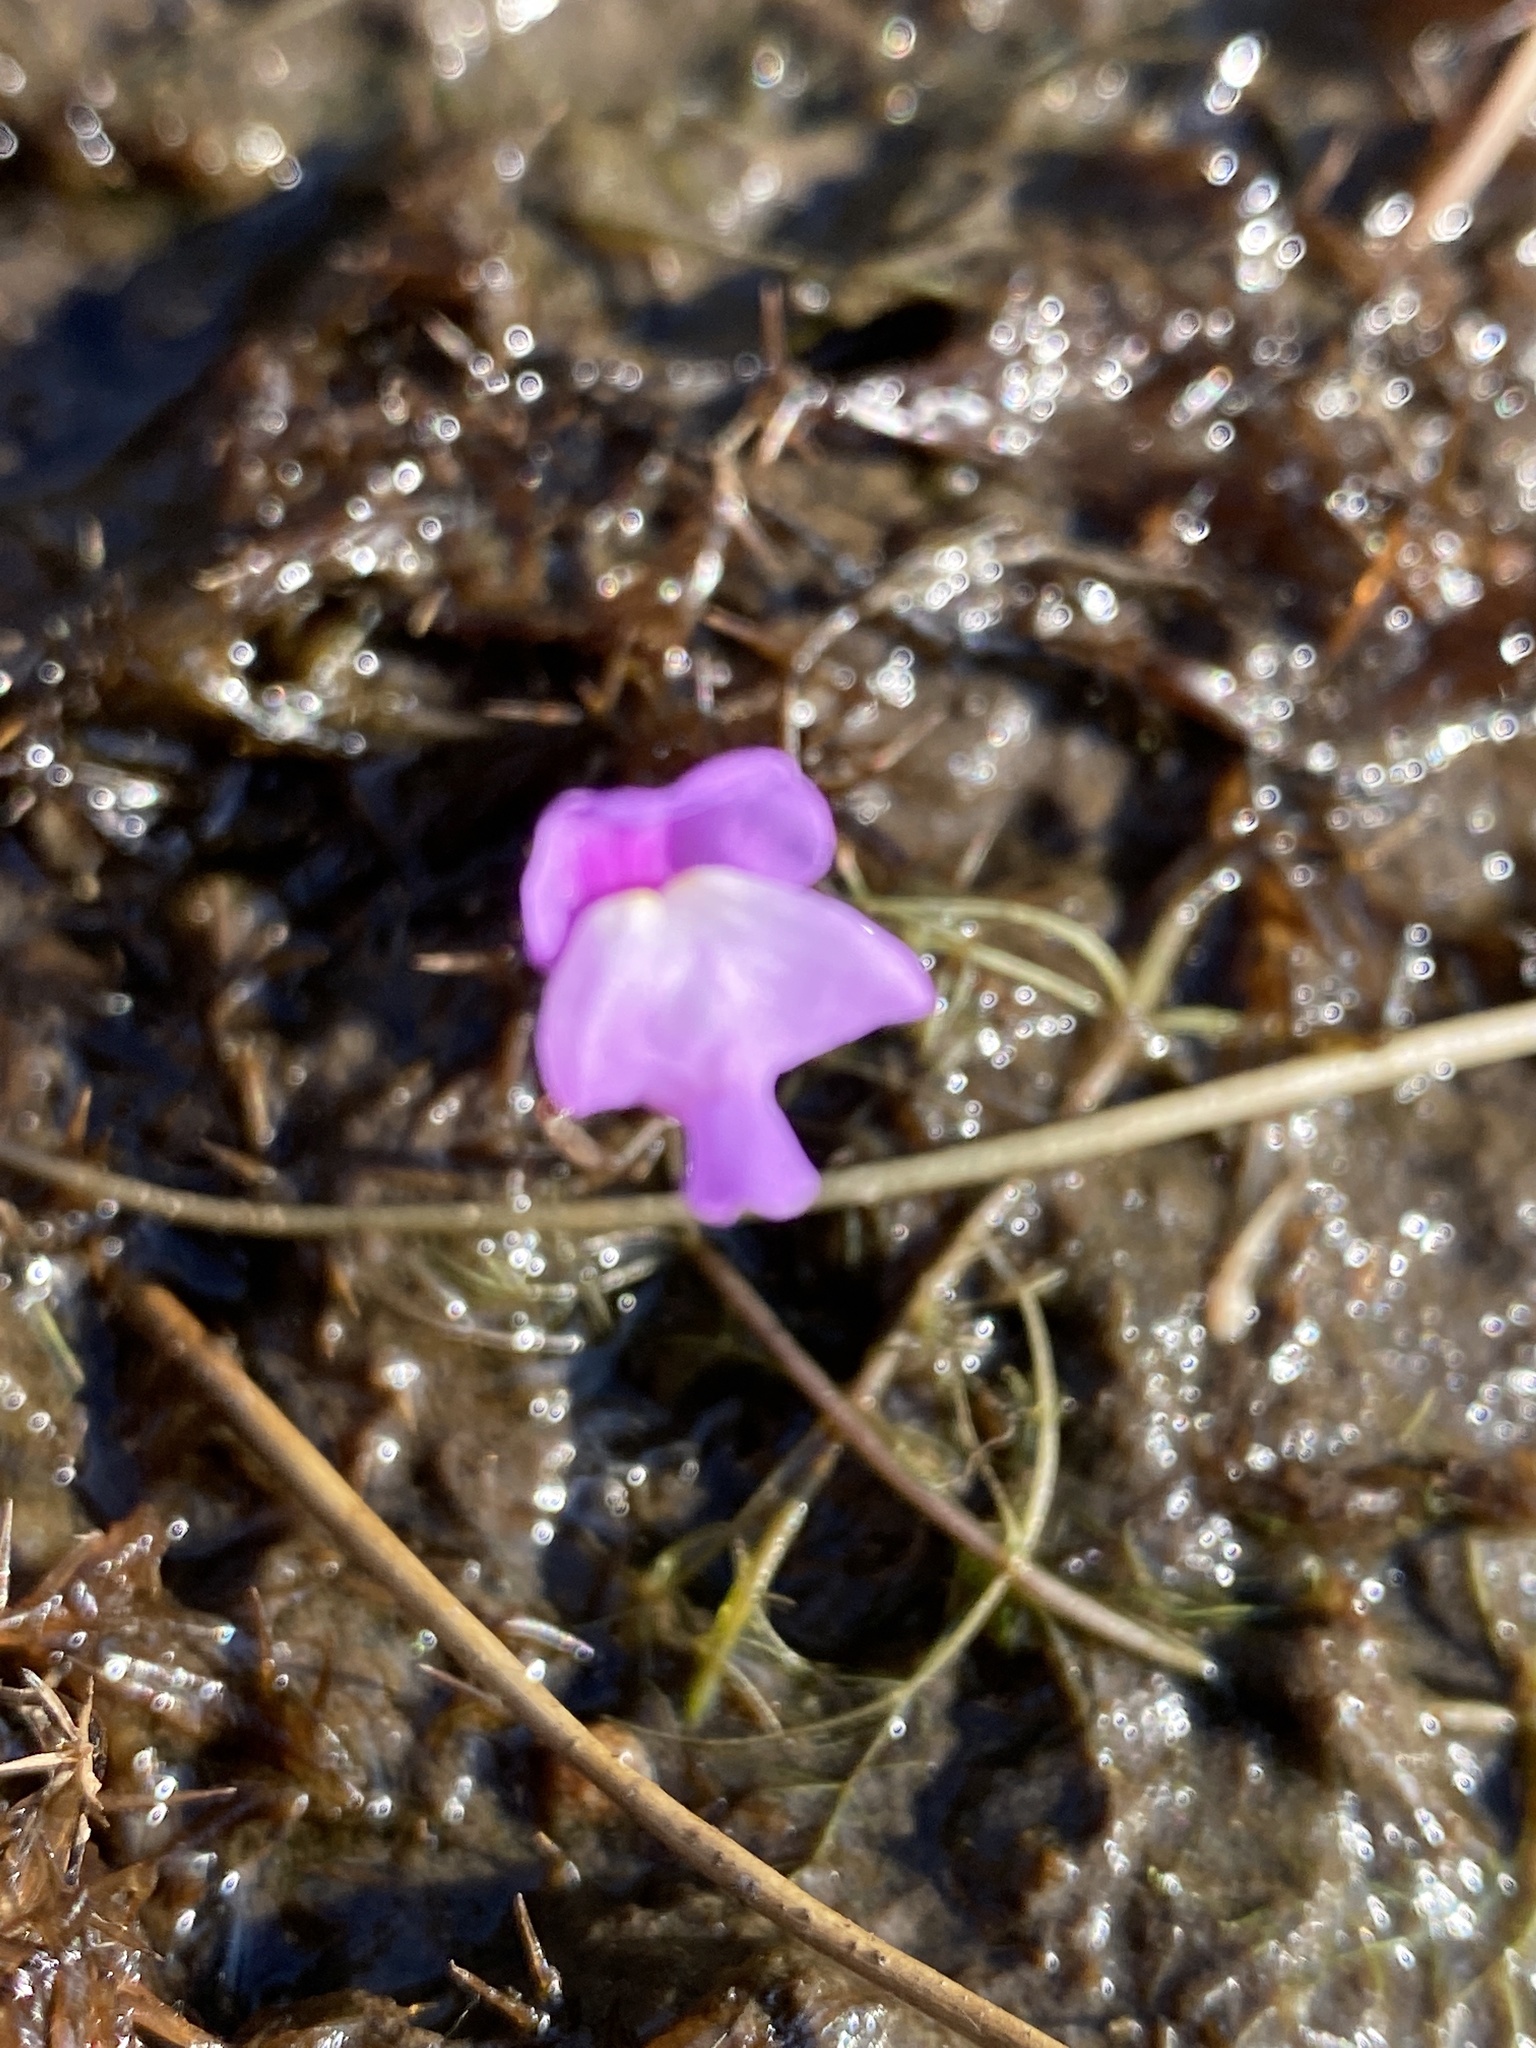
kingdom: Plantae
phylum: Tracheophyta
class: Magnoliopsida
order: Lamiales
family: Lentibulariaceae
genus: Utricularia
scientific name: Utricularia purpurea
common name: Eastern purple bladderwort
